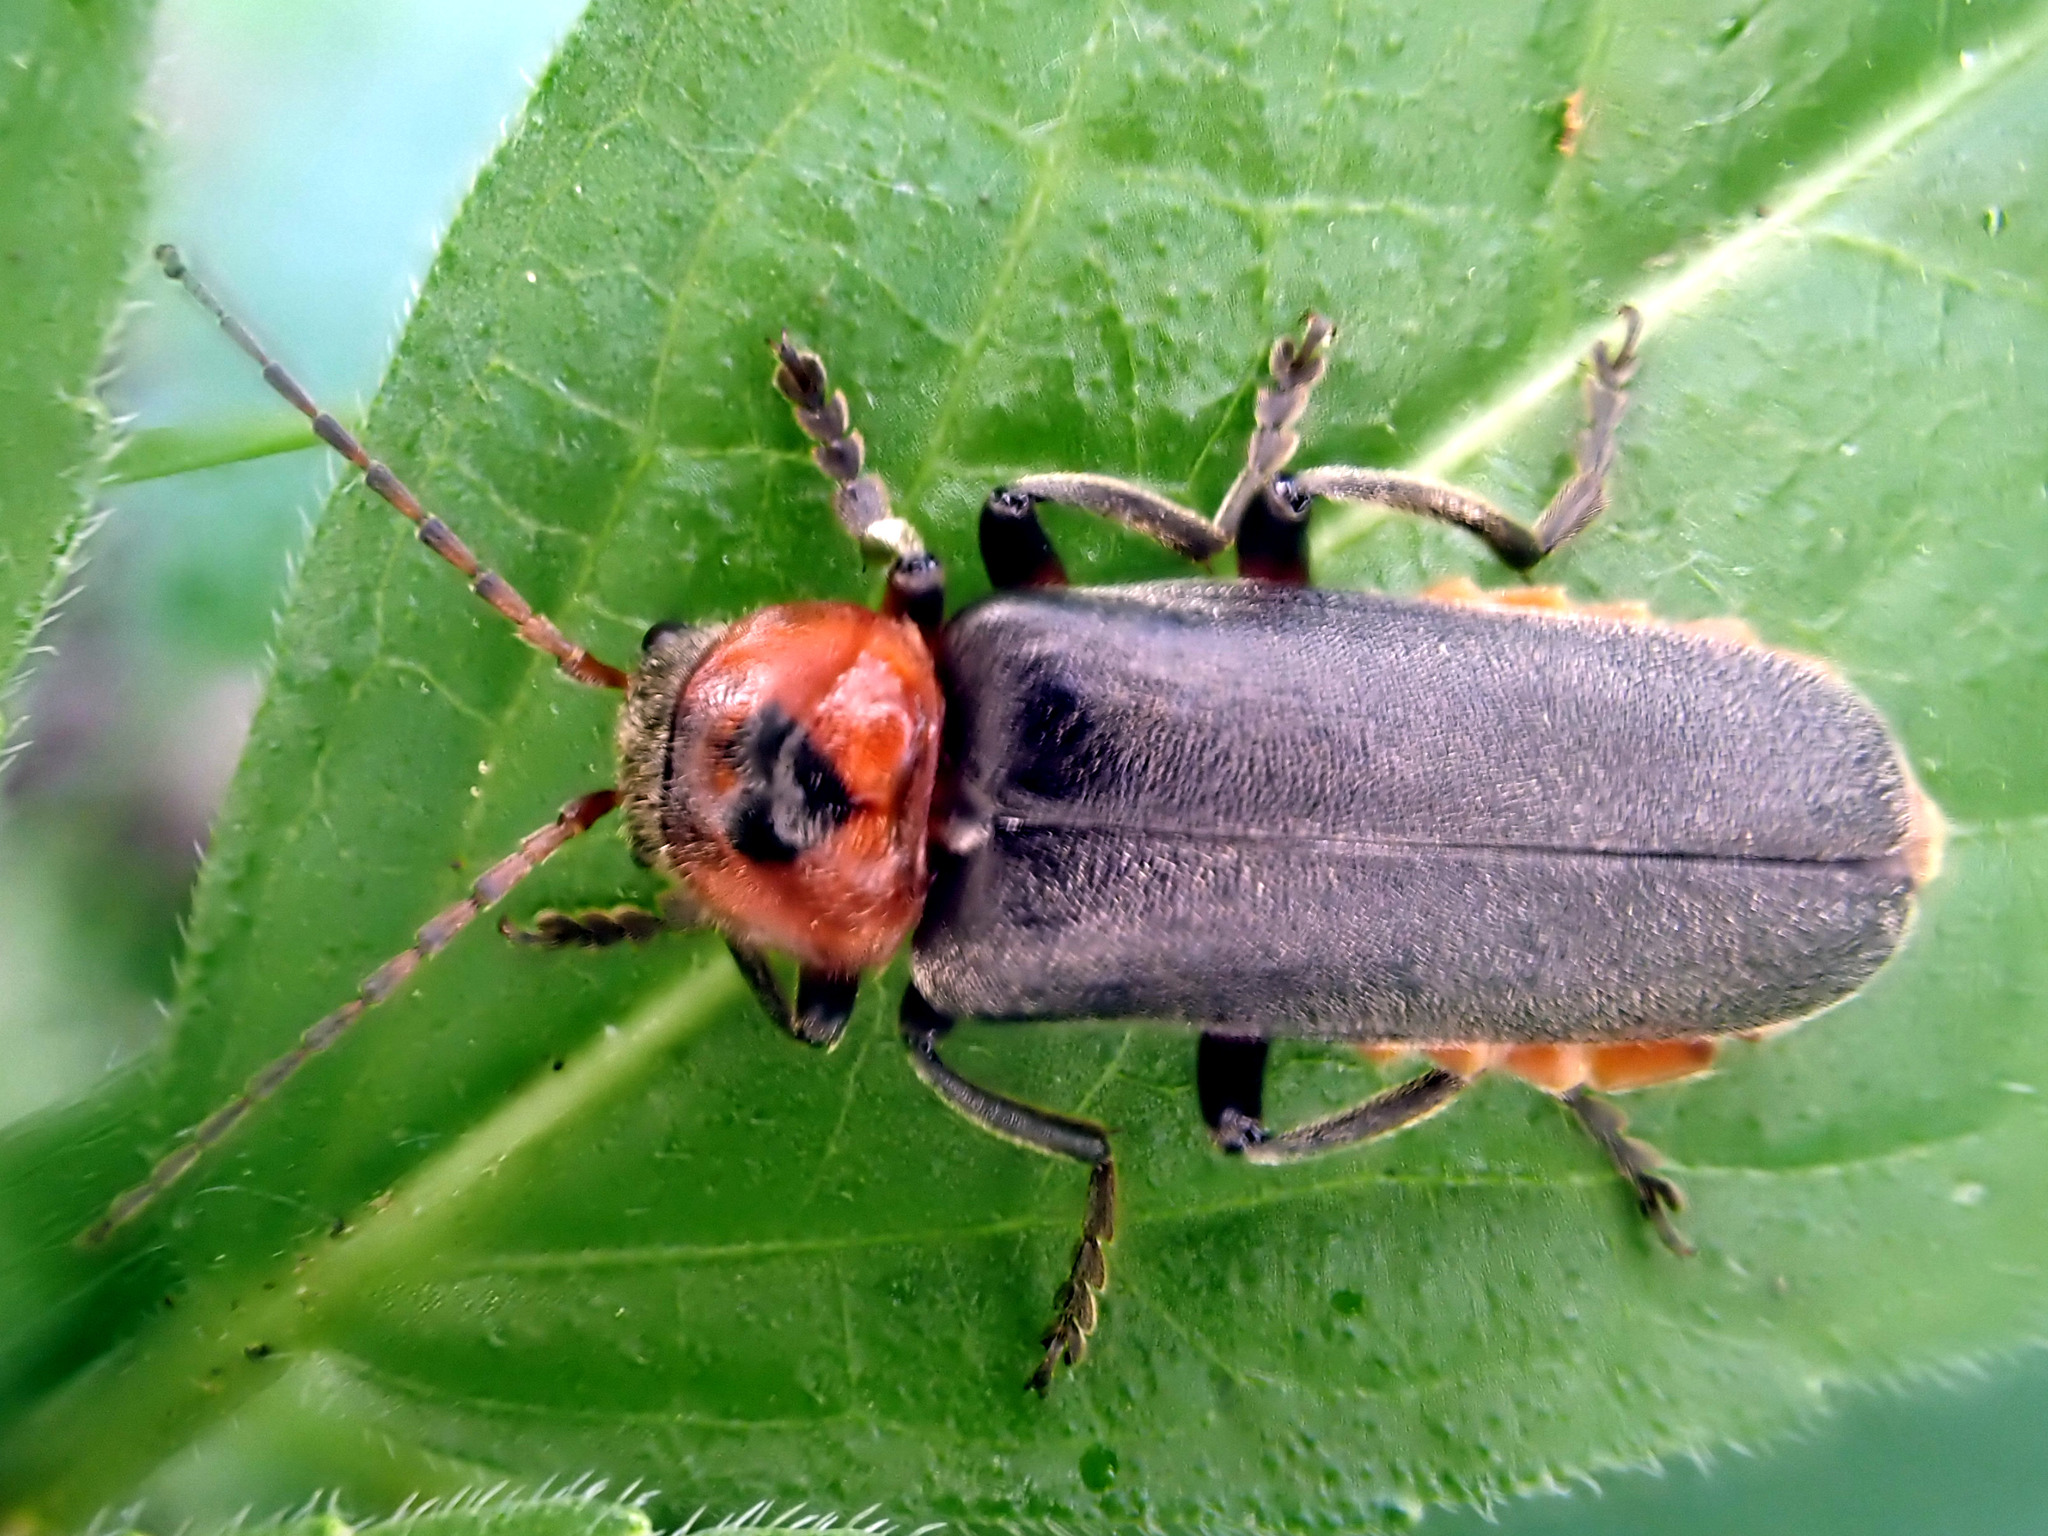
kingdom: Animalia
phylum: Arthropoda
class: Insecta
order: Coleoptera
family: Cantharidae
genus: Cantharis
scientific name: Cantharis rustica
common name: Soldier beetle
